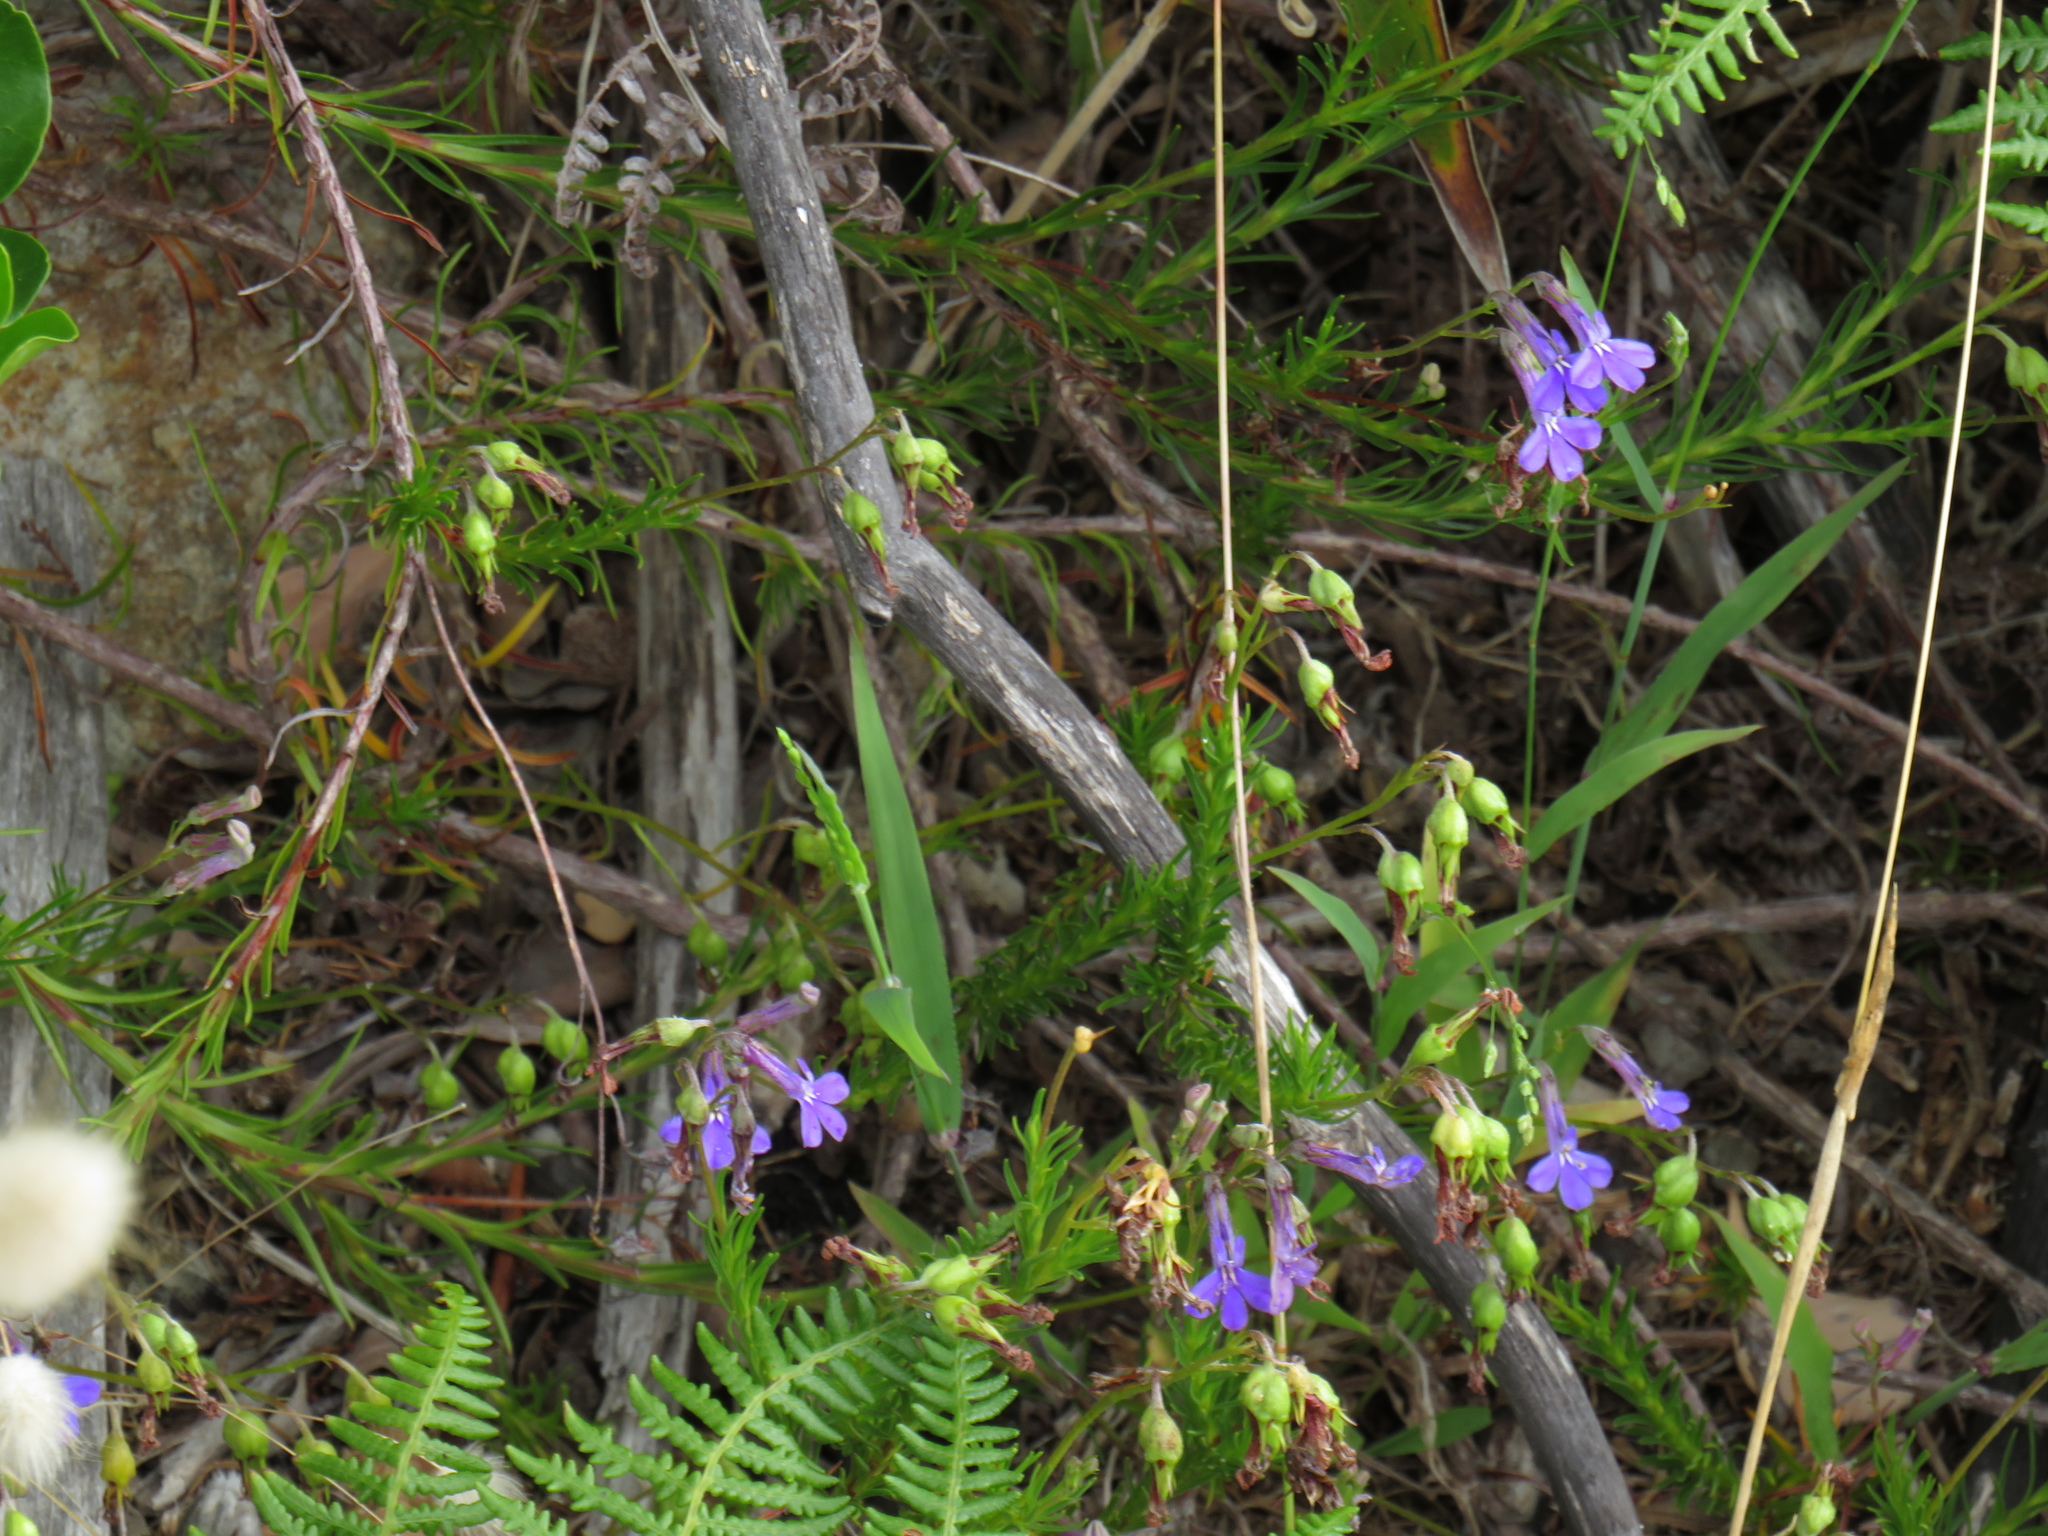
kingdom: Plantae
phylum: Tracheophyta
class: Magnoliopsida
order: Asterales
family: Campanulaceae
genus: Lobelia
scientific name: Lobelia pinifolia
